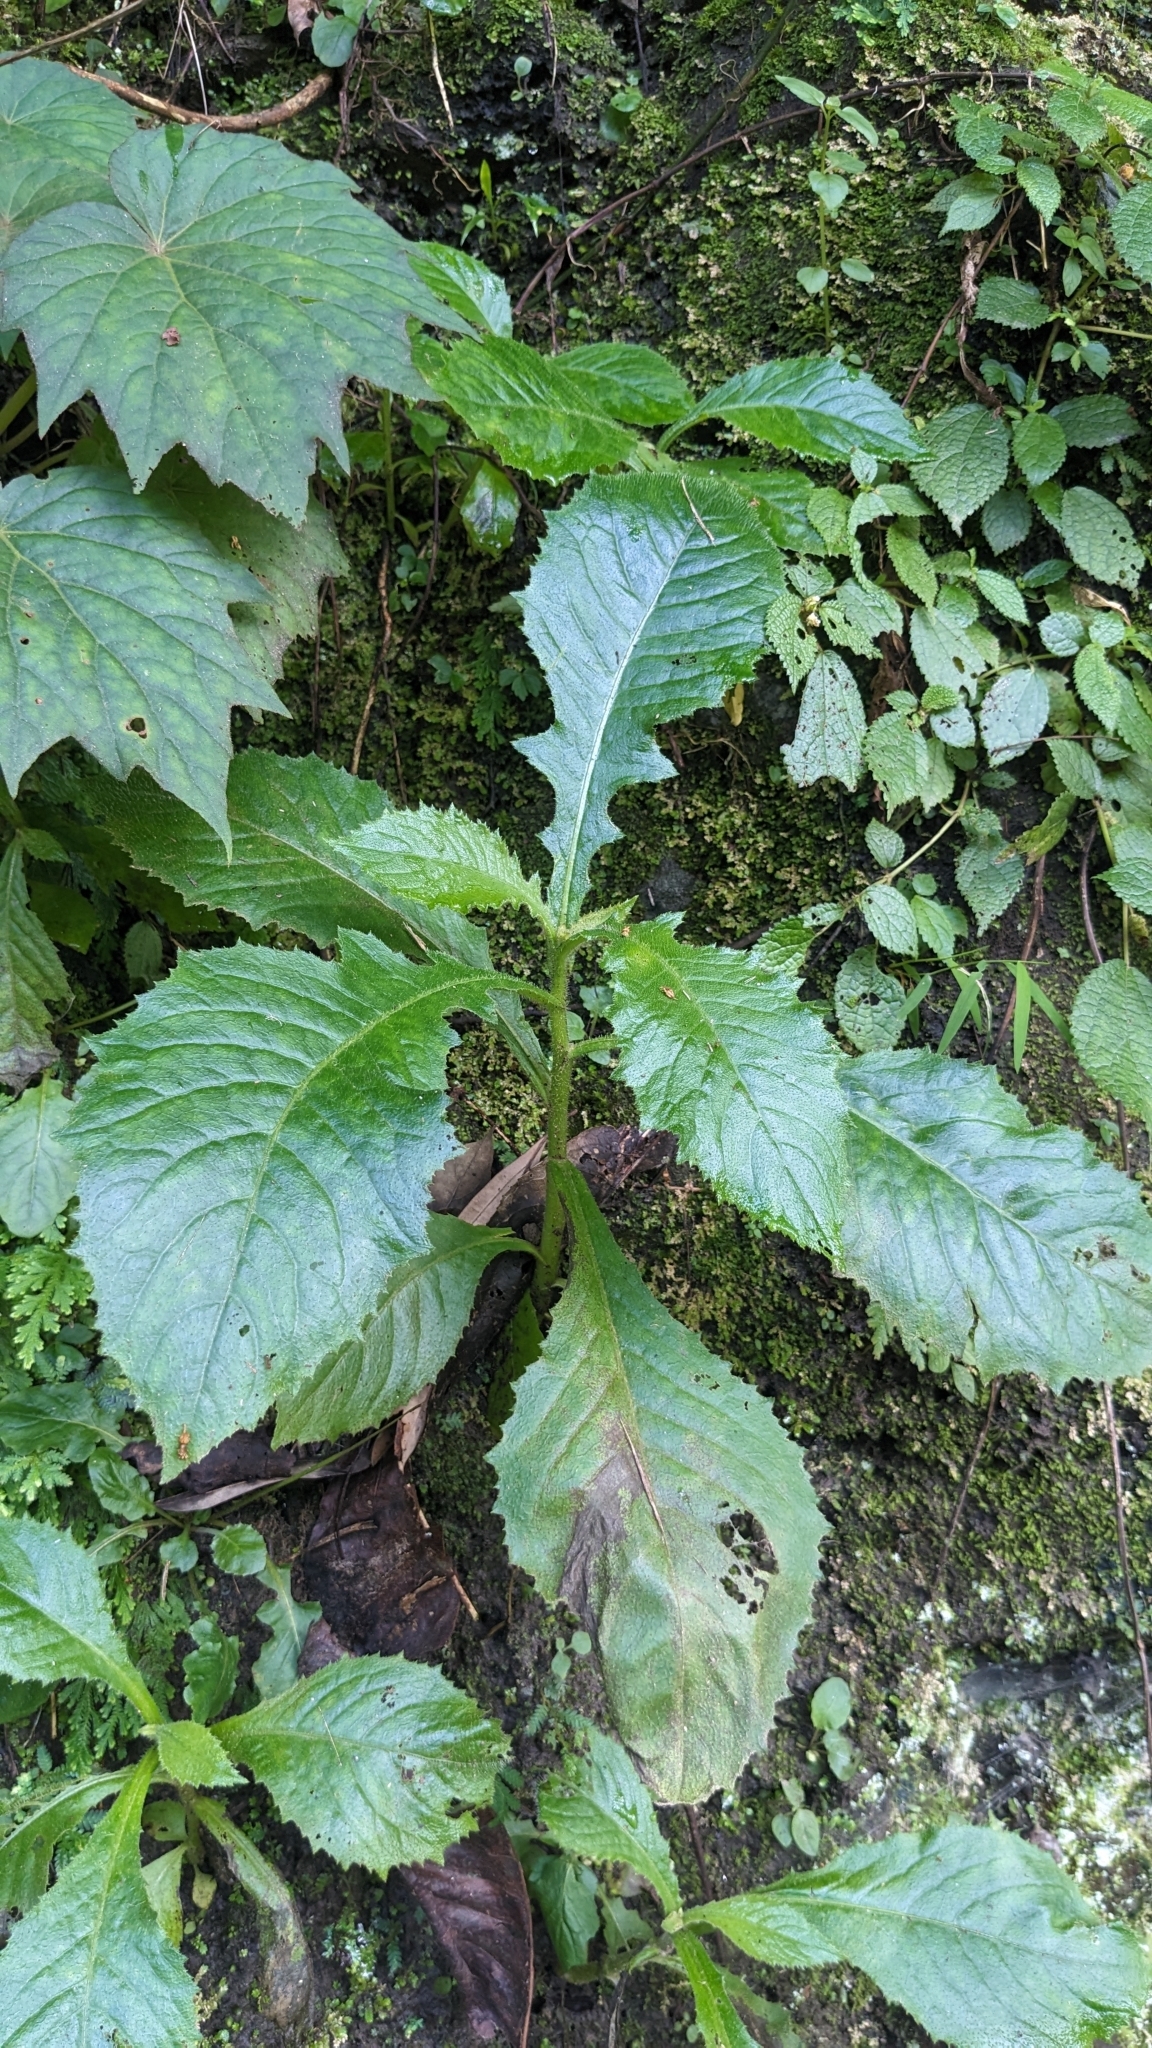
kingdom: Plantae
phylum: Tracheophyta
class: Magnoliopsida
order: Asterales
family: Asteraceae
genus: Blumea
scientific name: Blumea sinuata
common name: Cutleaf false oxtongue
